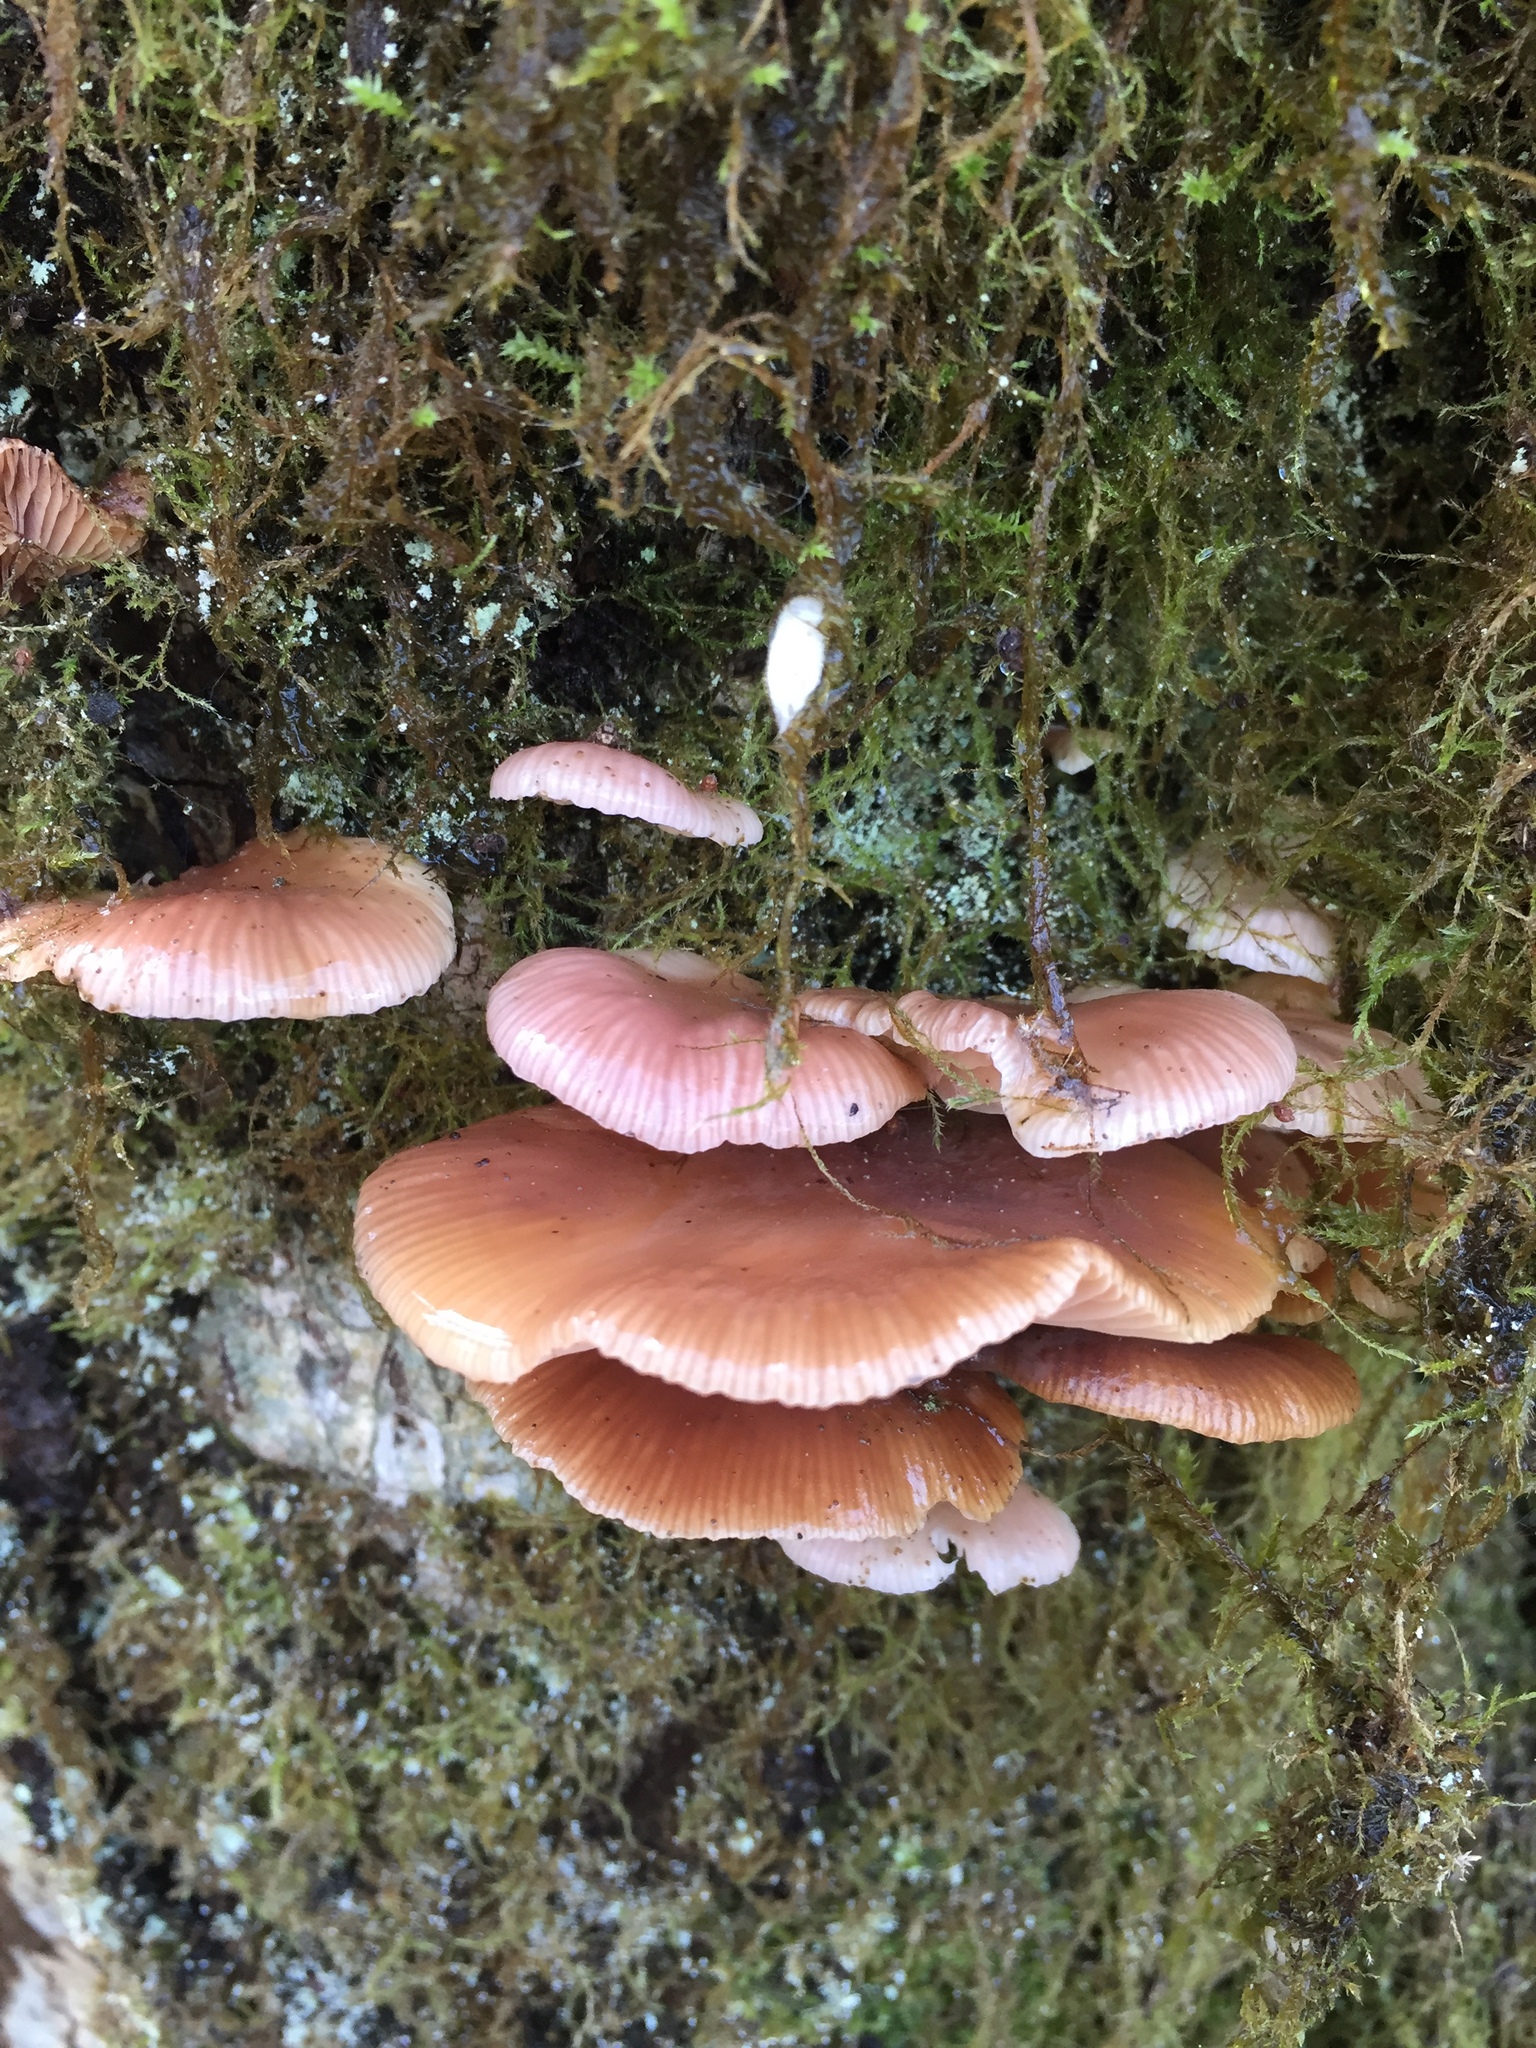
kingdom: Fungi
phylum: Basidiomycota
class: Agaricomycetes
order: Agaricales
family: Mycenaceae
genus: Panellus
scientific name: Panellus longinquus
